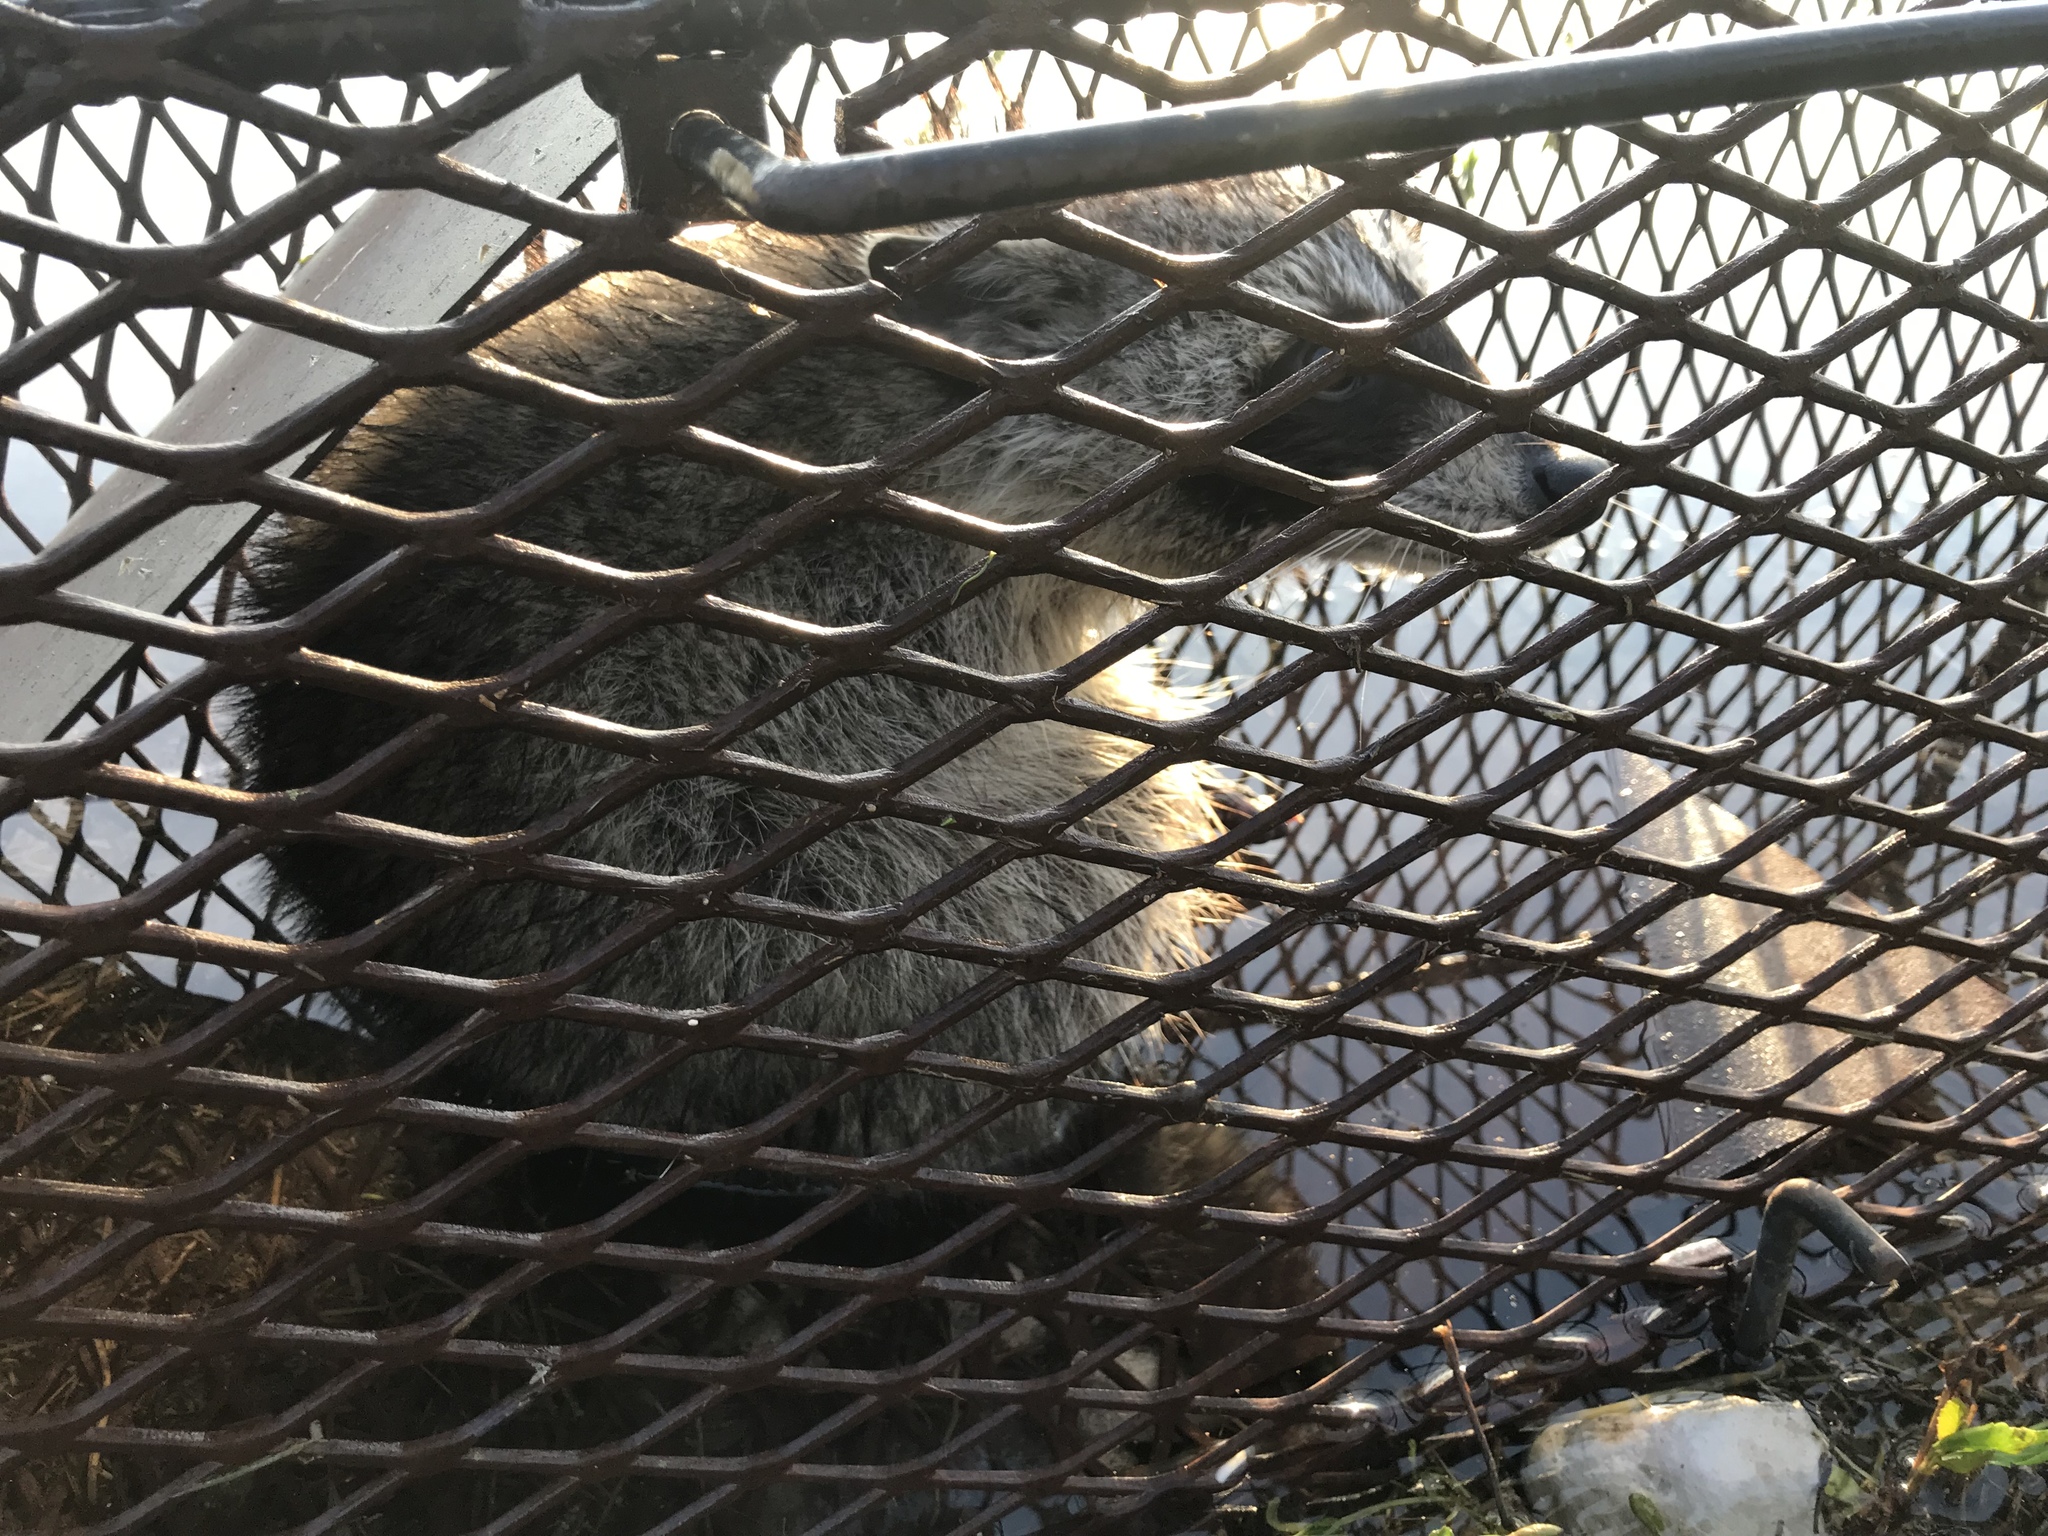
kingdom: Animalia
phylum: Chordata
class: Mammalia
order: Carnivora
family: Procyonidae
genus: Procyon
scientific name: Procyon lotor
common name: Raccoon
